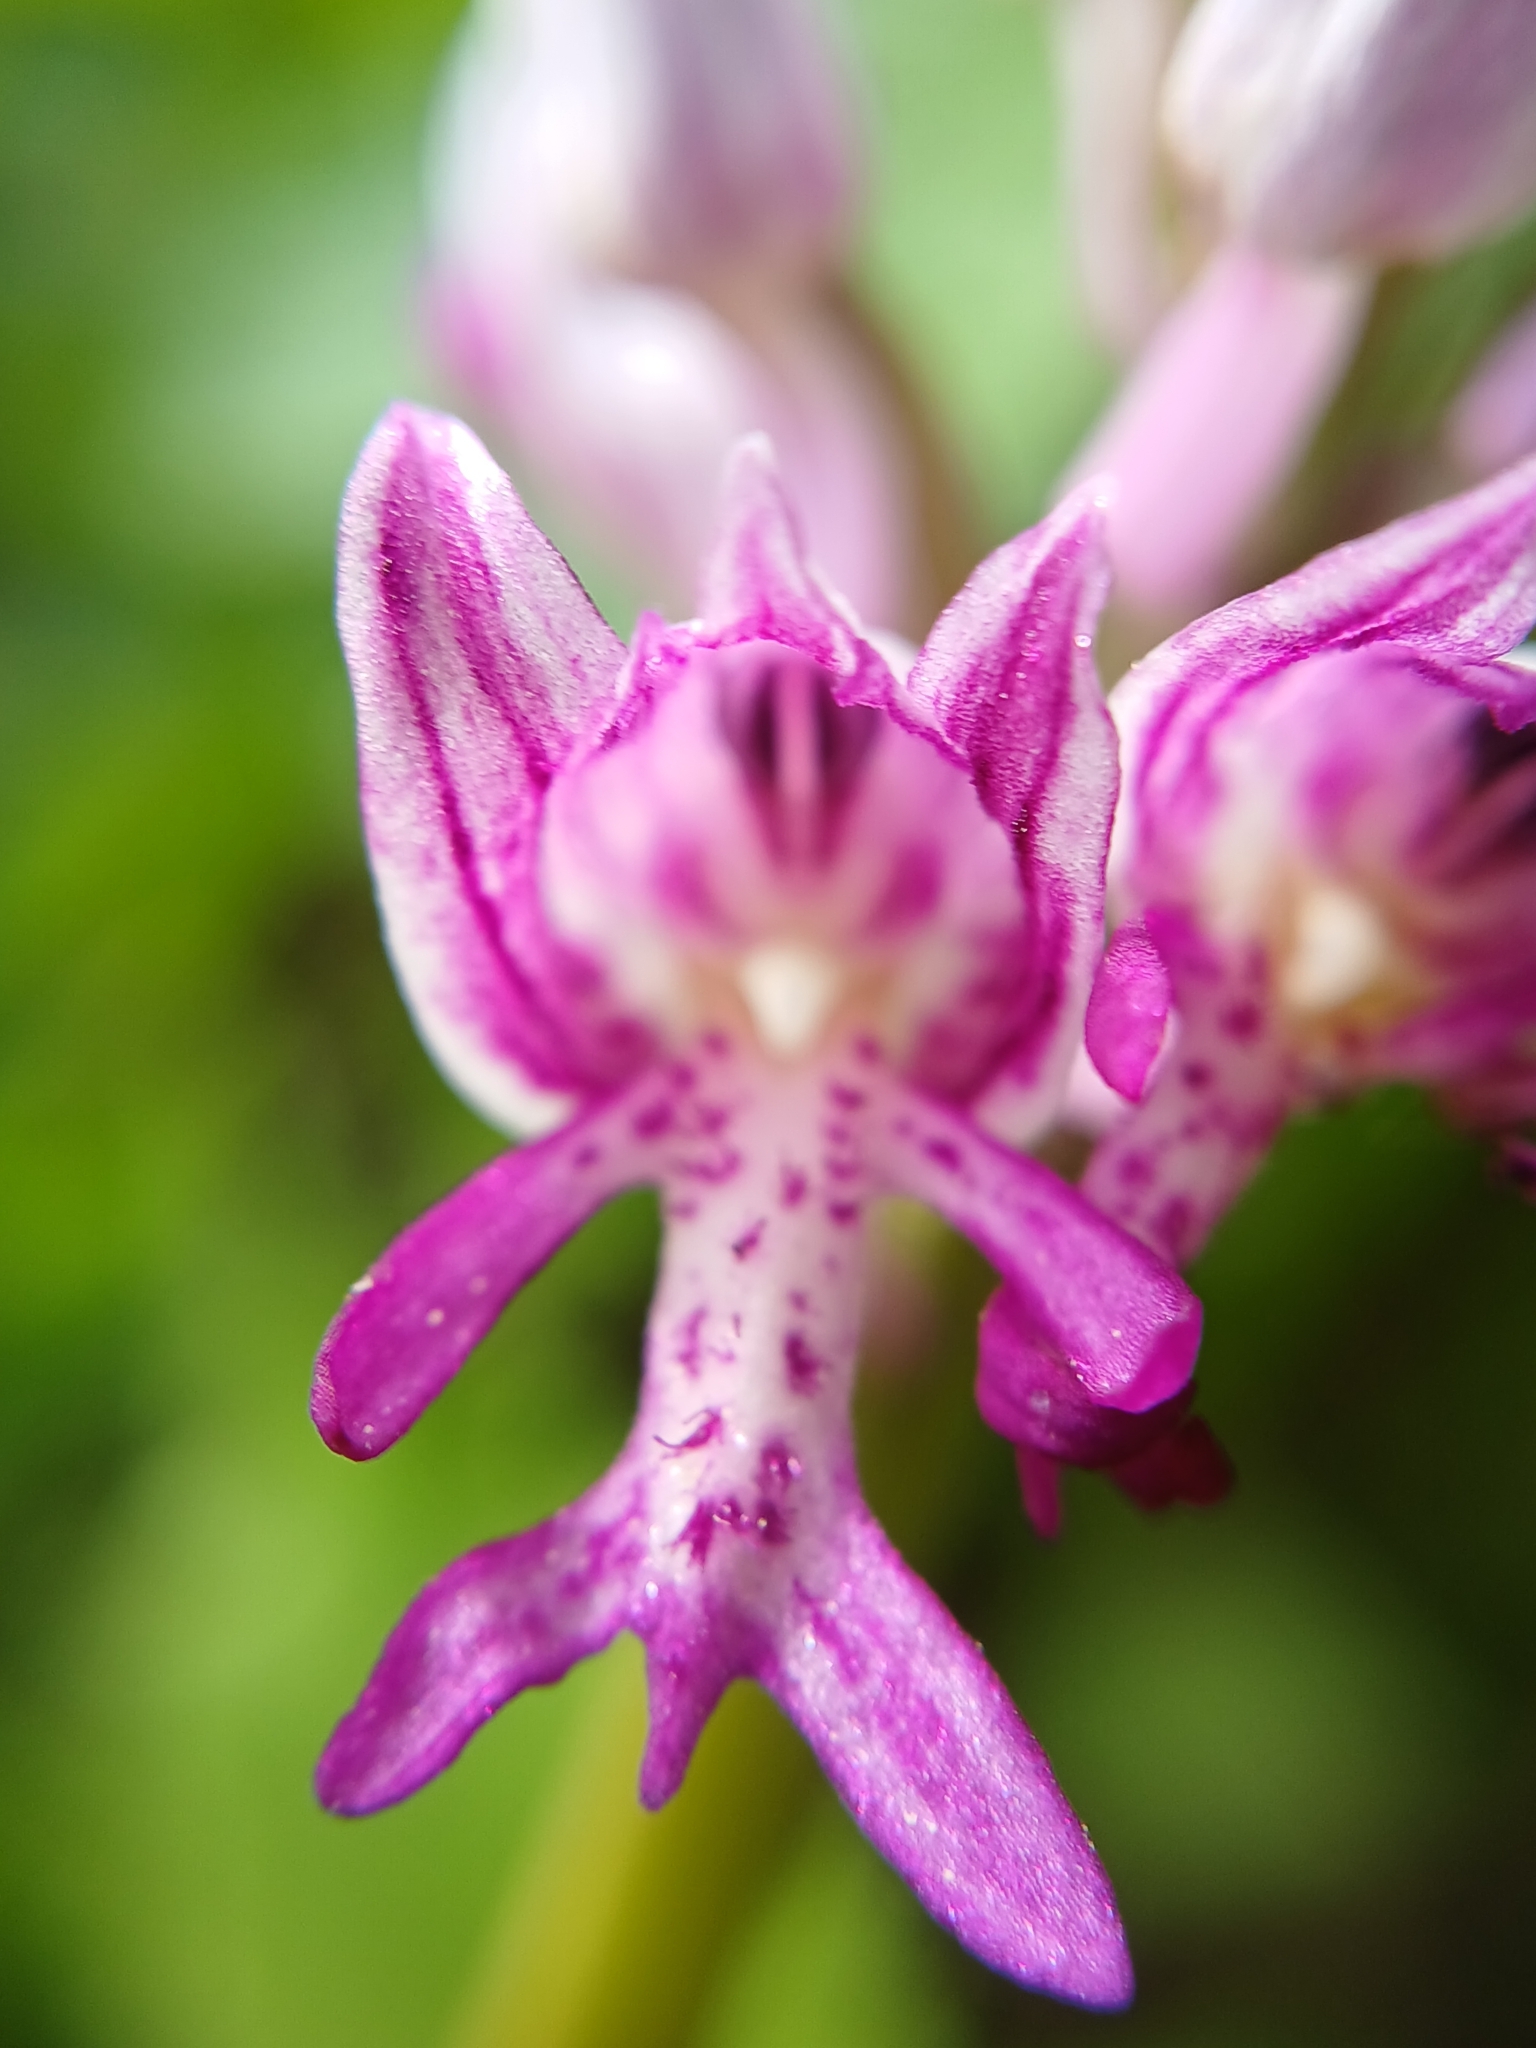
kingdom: Plantae
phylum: Tracheophyta
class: Liliopsida
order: Asparagales
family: Orchidaceae
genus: Orchis
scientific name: Orchis militaris
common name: Military orchid
